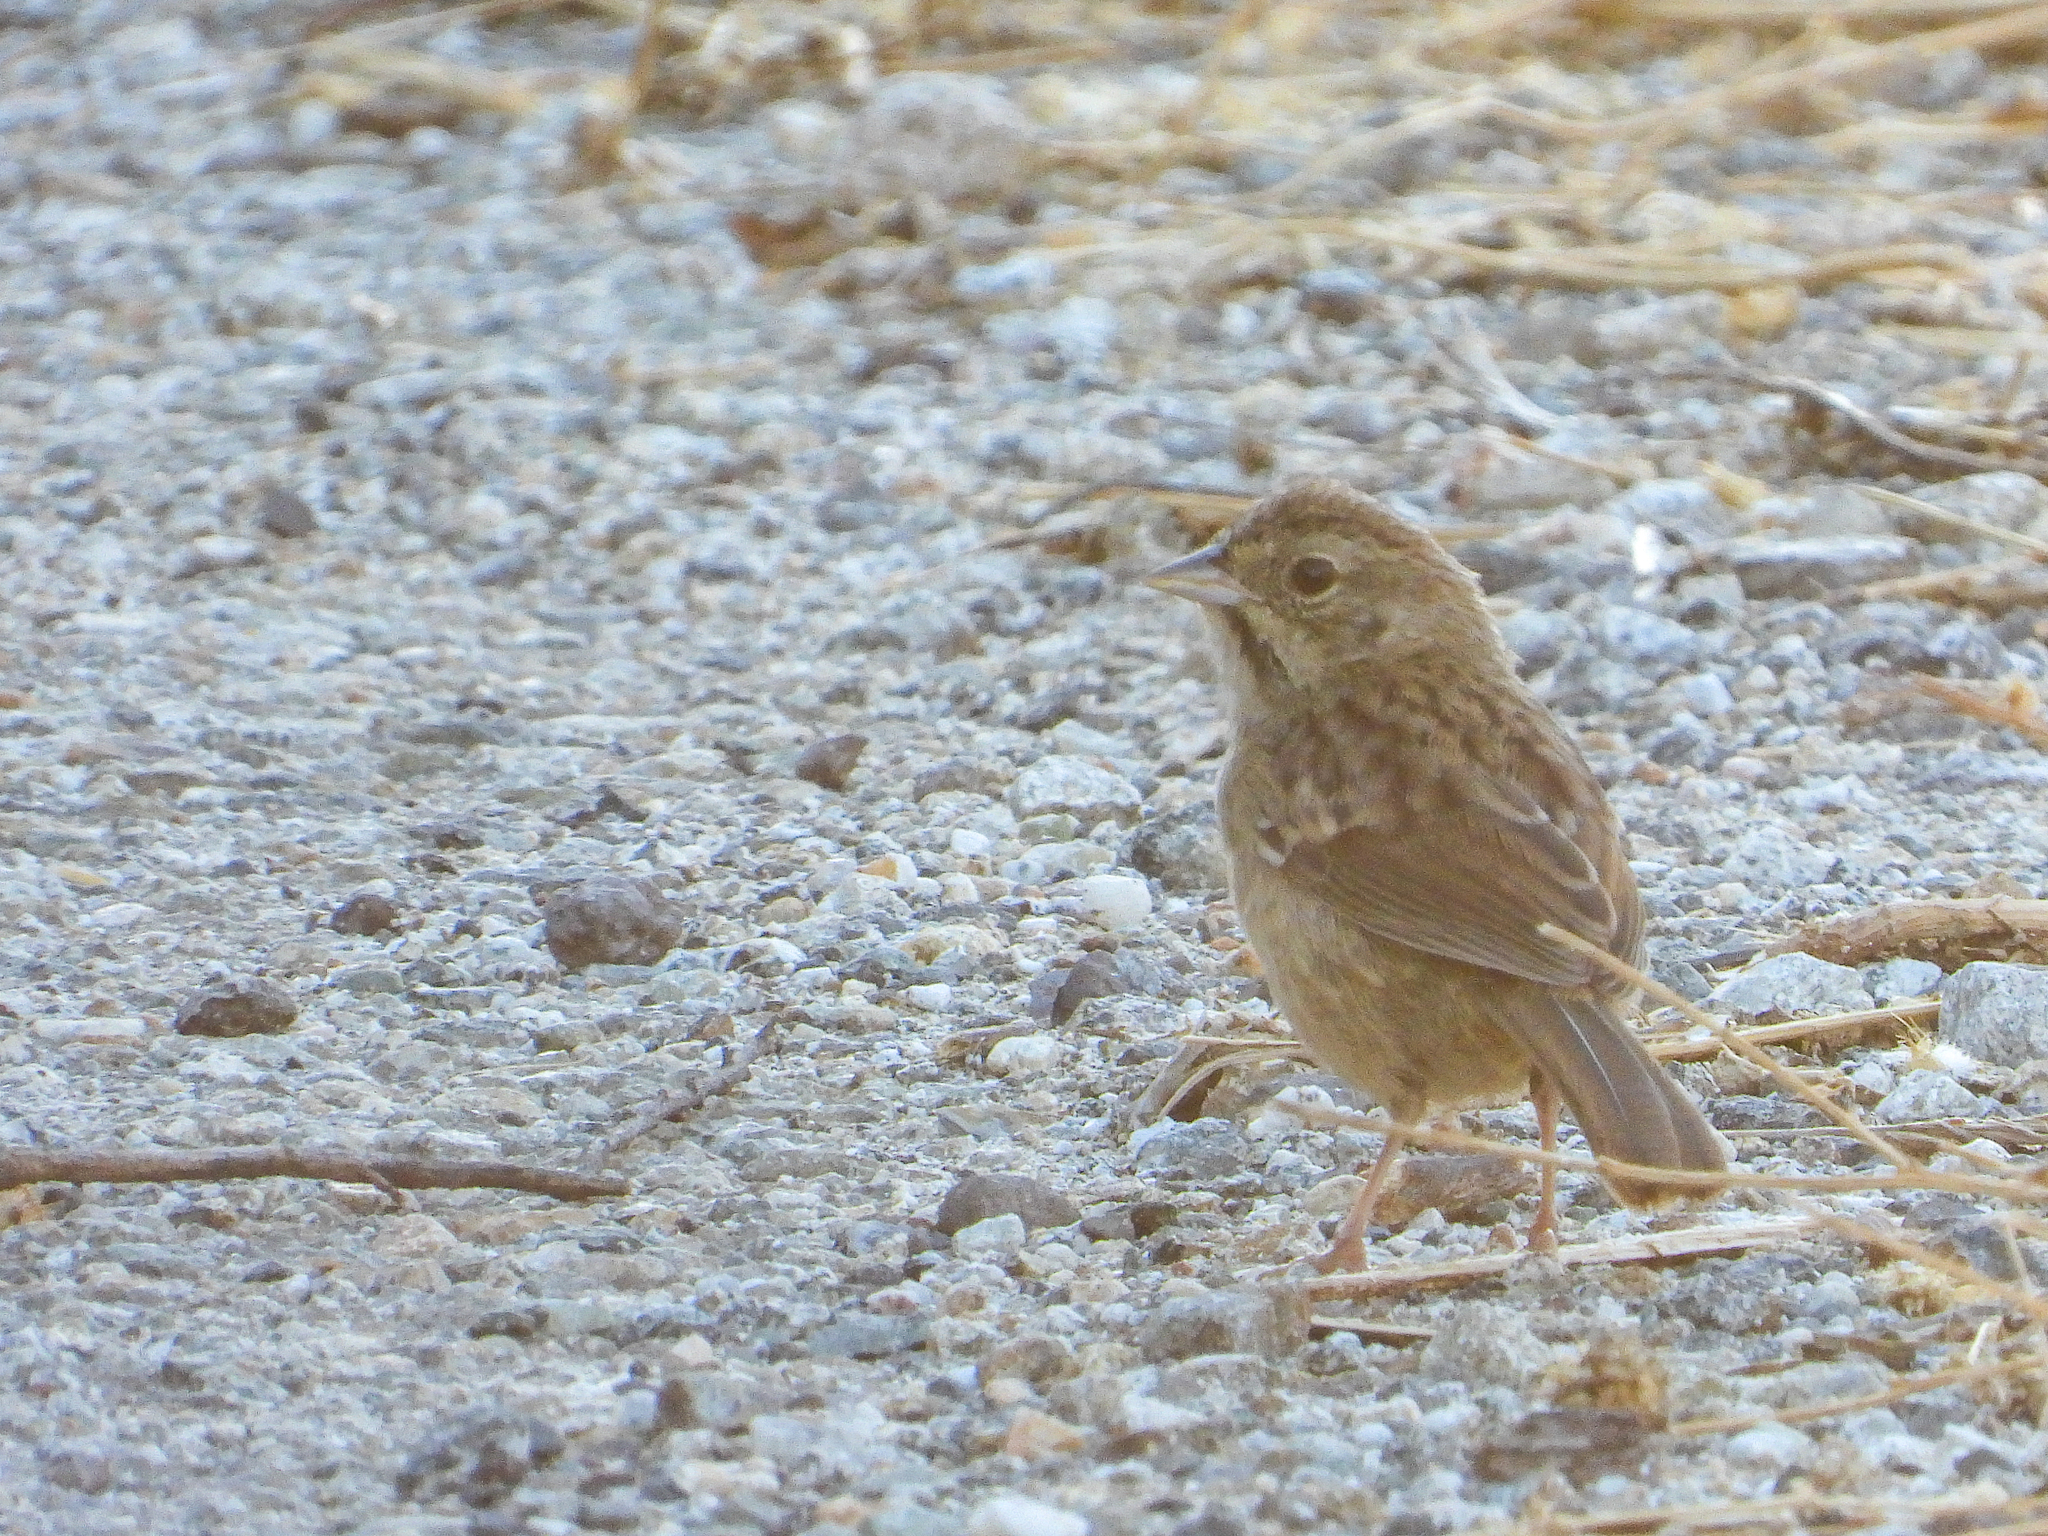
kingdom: Animalia
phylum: Chordata
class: Aves
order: Passeriformes
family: Passerellidae
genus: Aimophila
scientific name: Aimophila ruficeps
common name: Rufous-crowned sparrow
